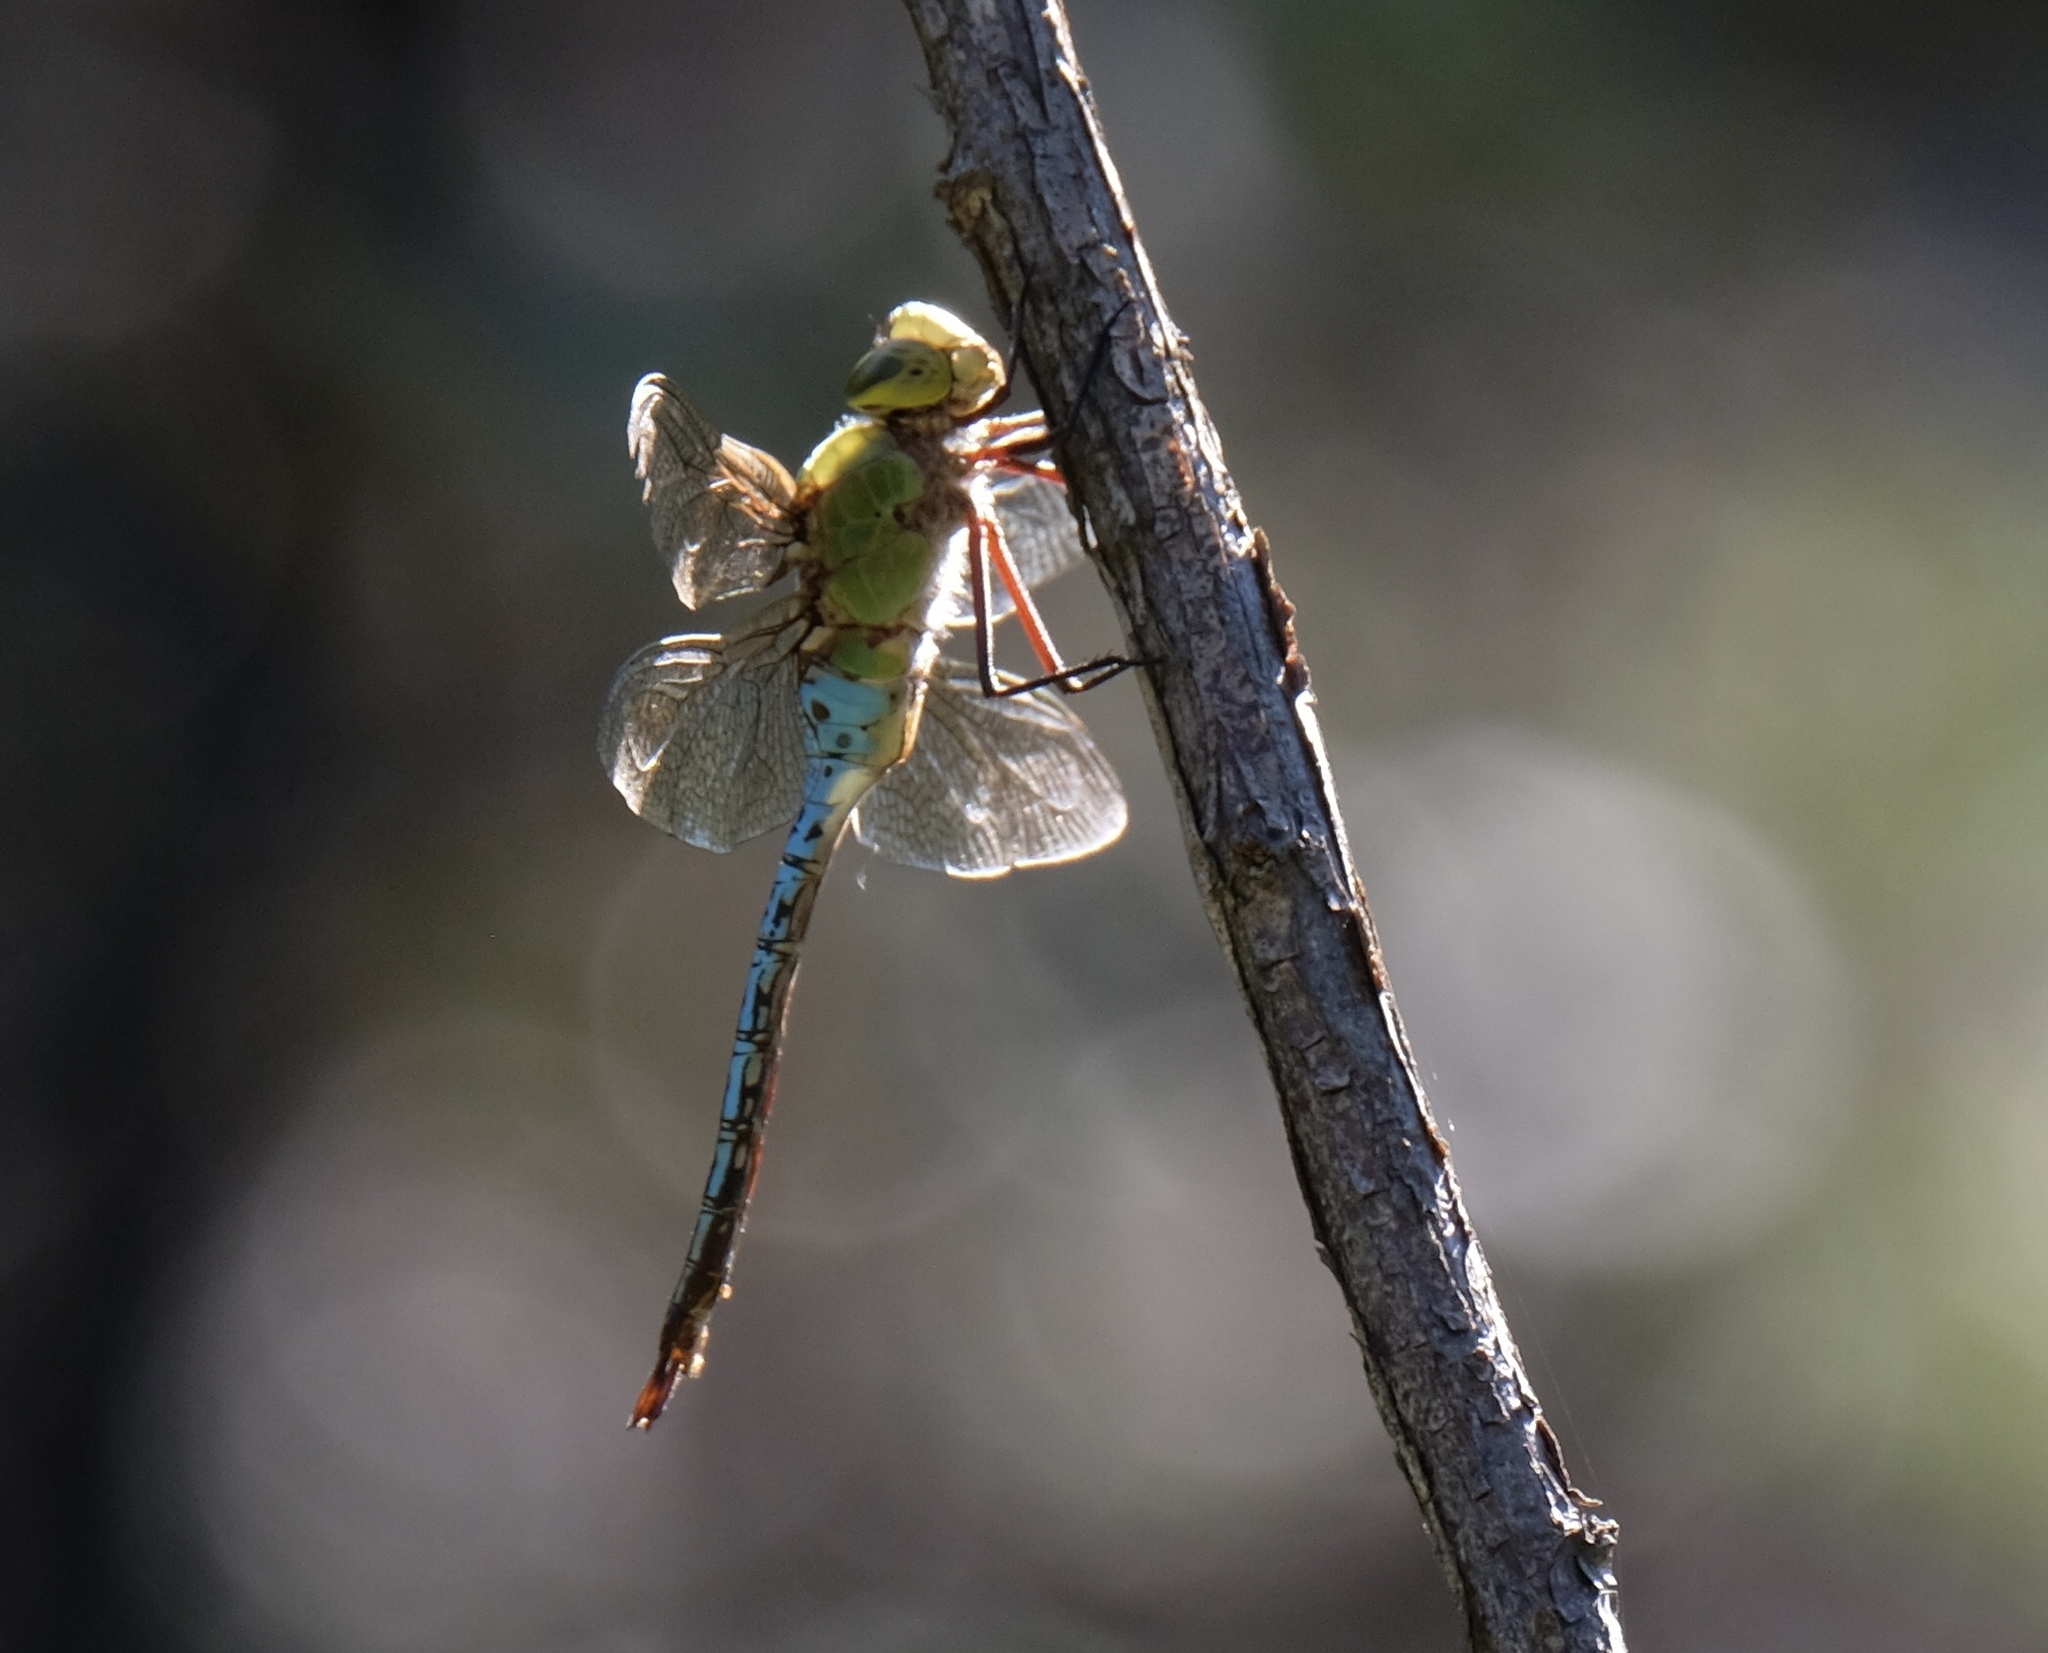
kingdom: Animalia
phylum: Arthropoda
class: Insecta
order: Odonata
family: Aeshnidae
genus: Anax
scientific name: Anax junius
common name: Common green darner
